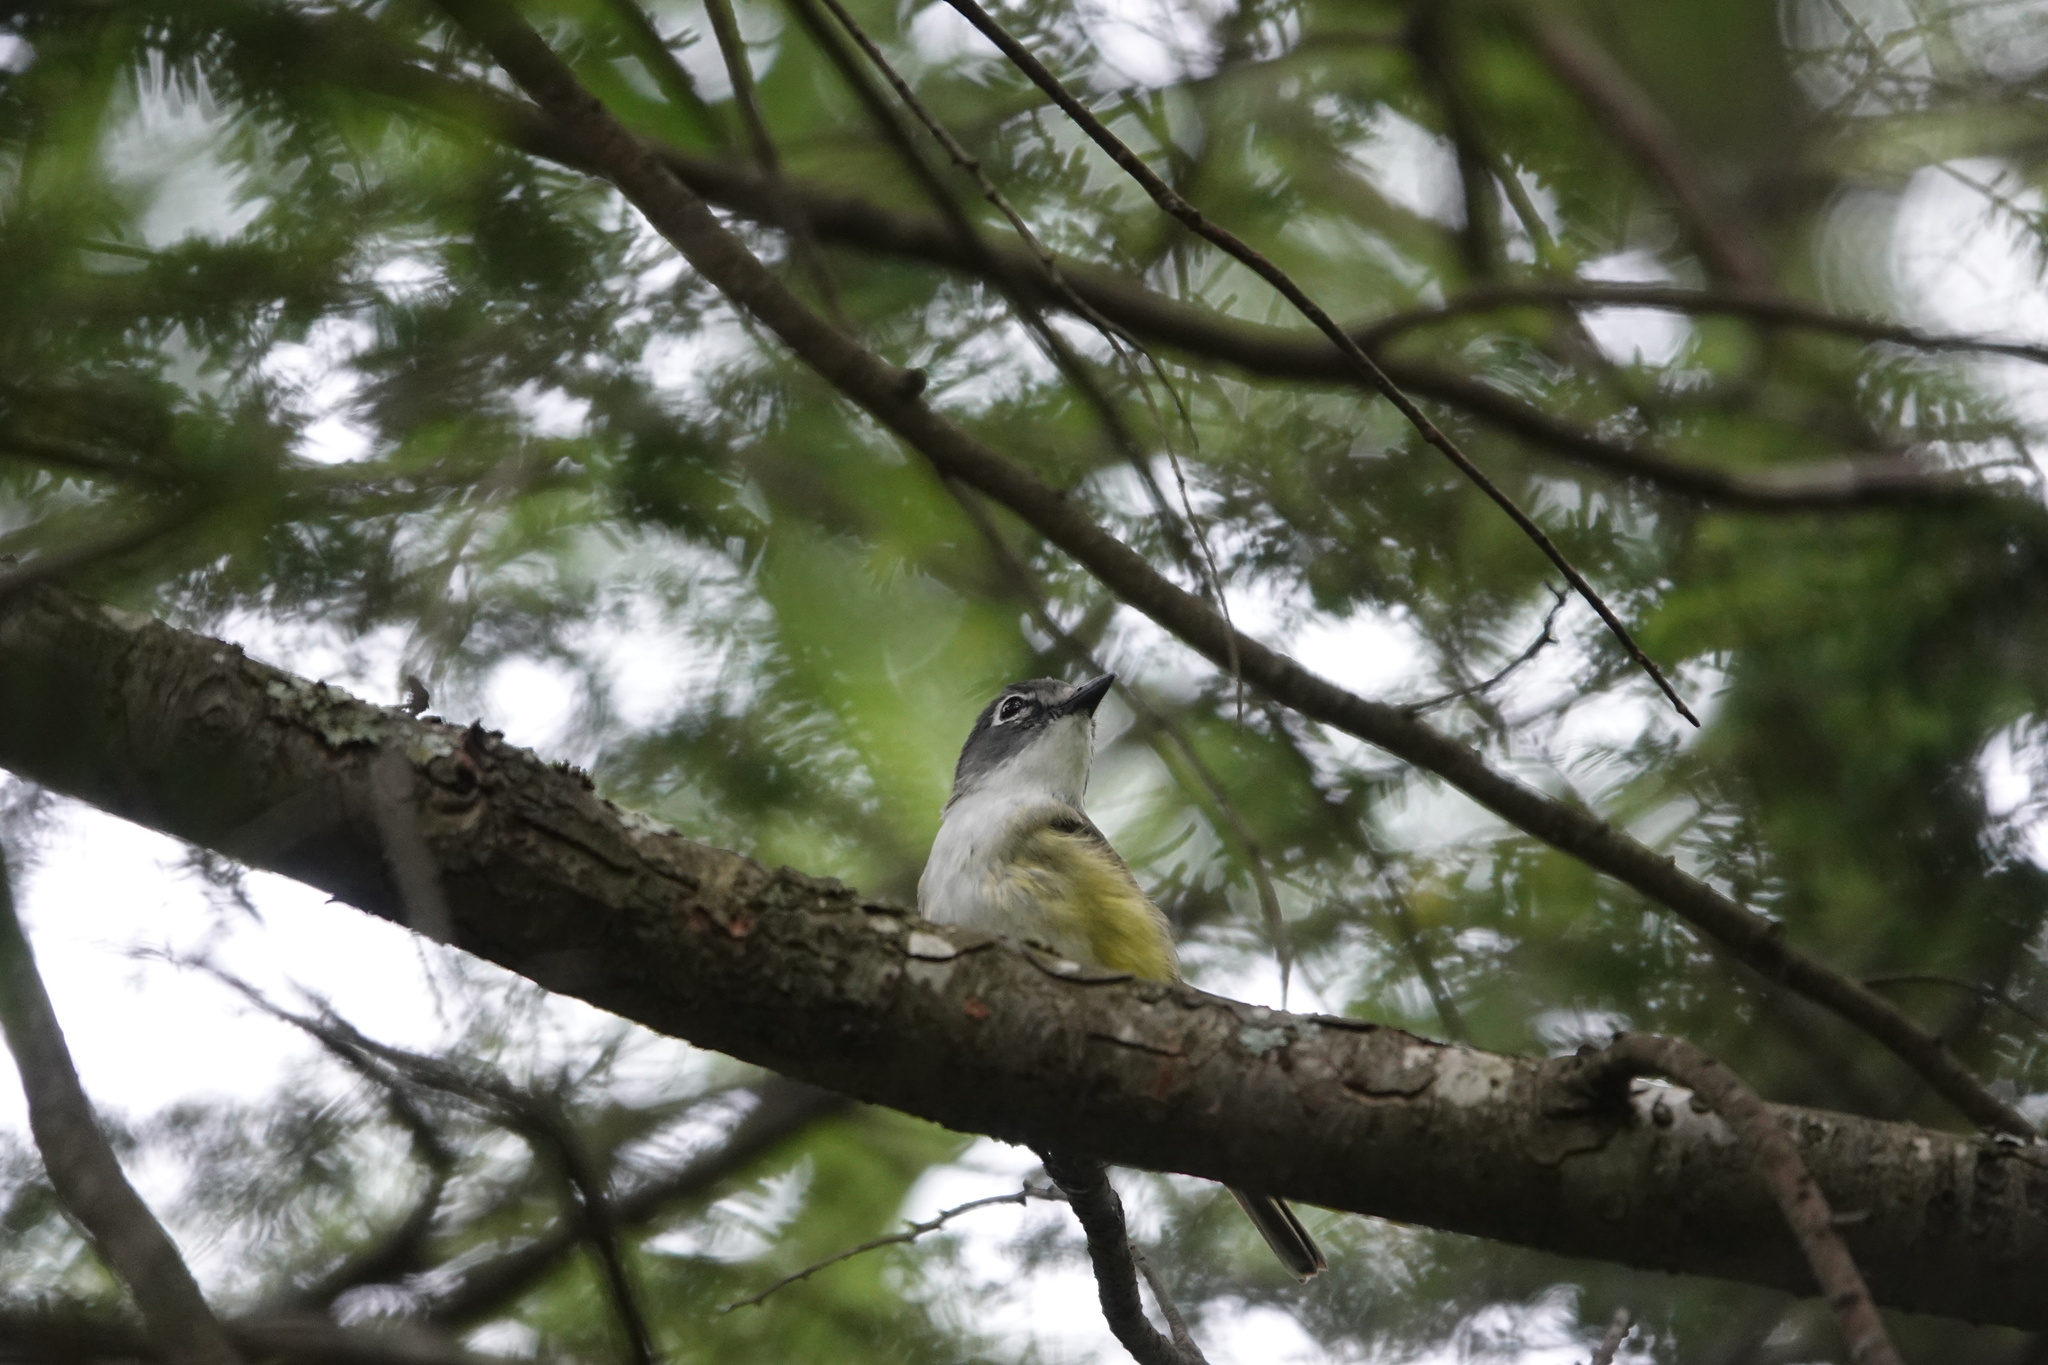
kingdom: Animalia
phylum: Chordata
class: Aves
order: Passeriformes
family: Vireonidae
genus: Vireo
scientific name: Vireo solitarius
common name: Blue-headed vireo
